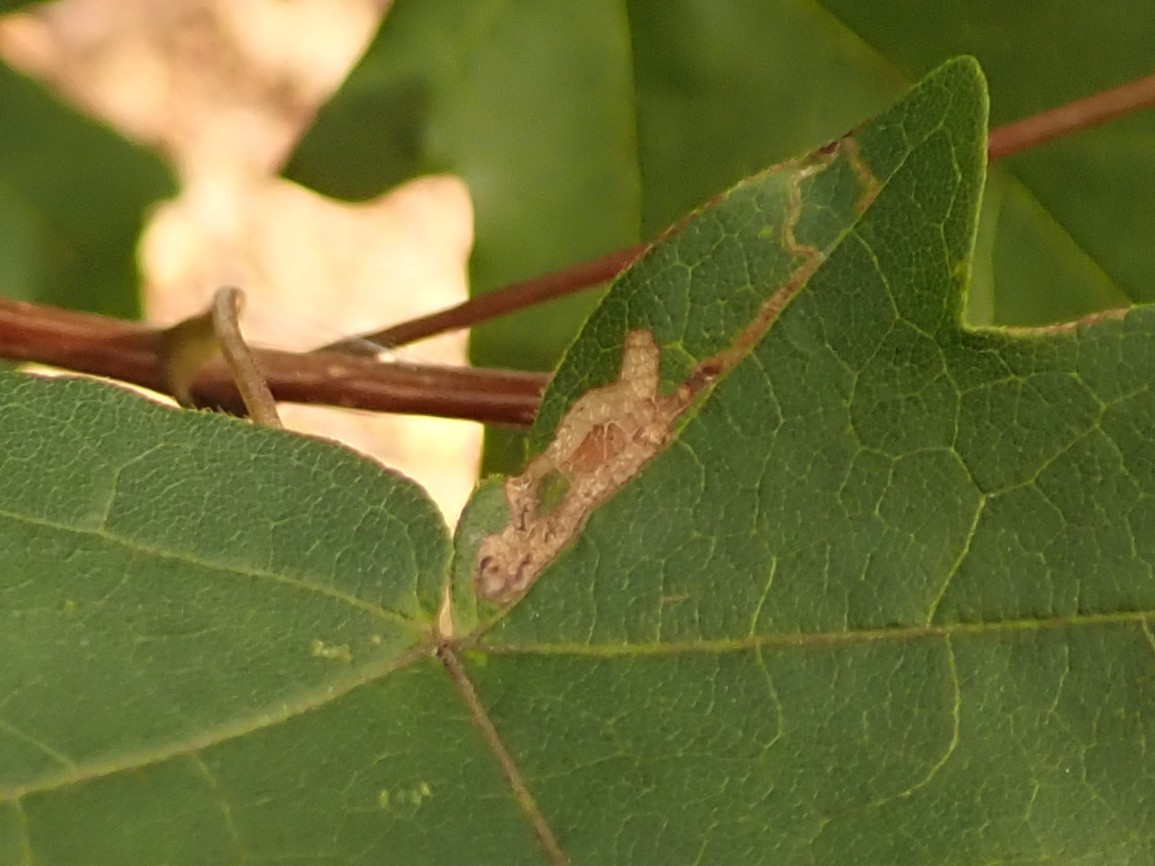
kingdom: Animalia
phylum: Arthropoda
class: Insecta
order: Lepidoptera
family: Nepticulidae
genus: Stigmella
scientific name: Stigmella aceris
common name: Scarce maple pigmy
